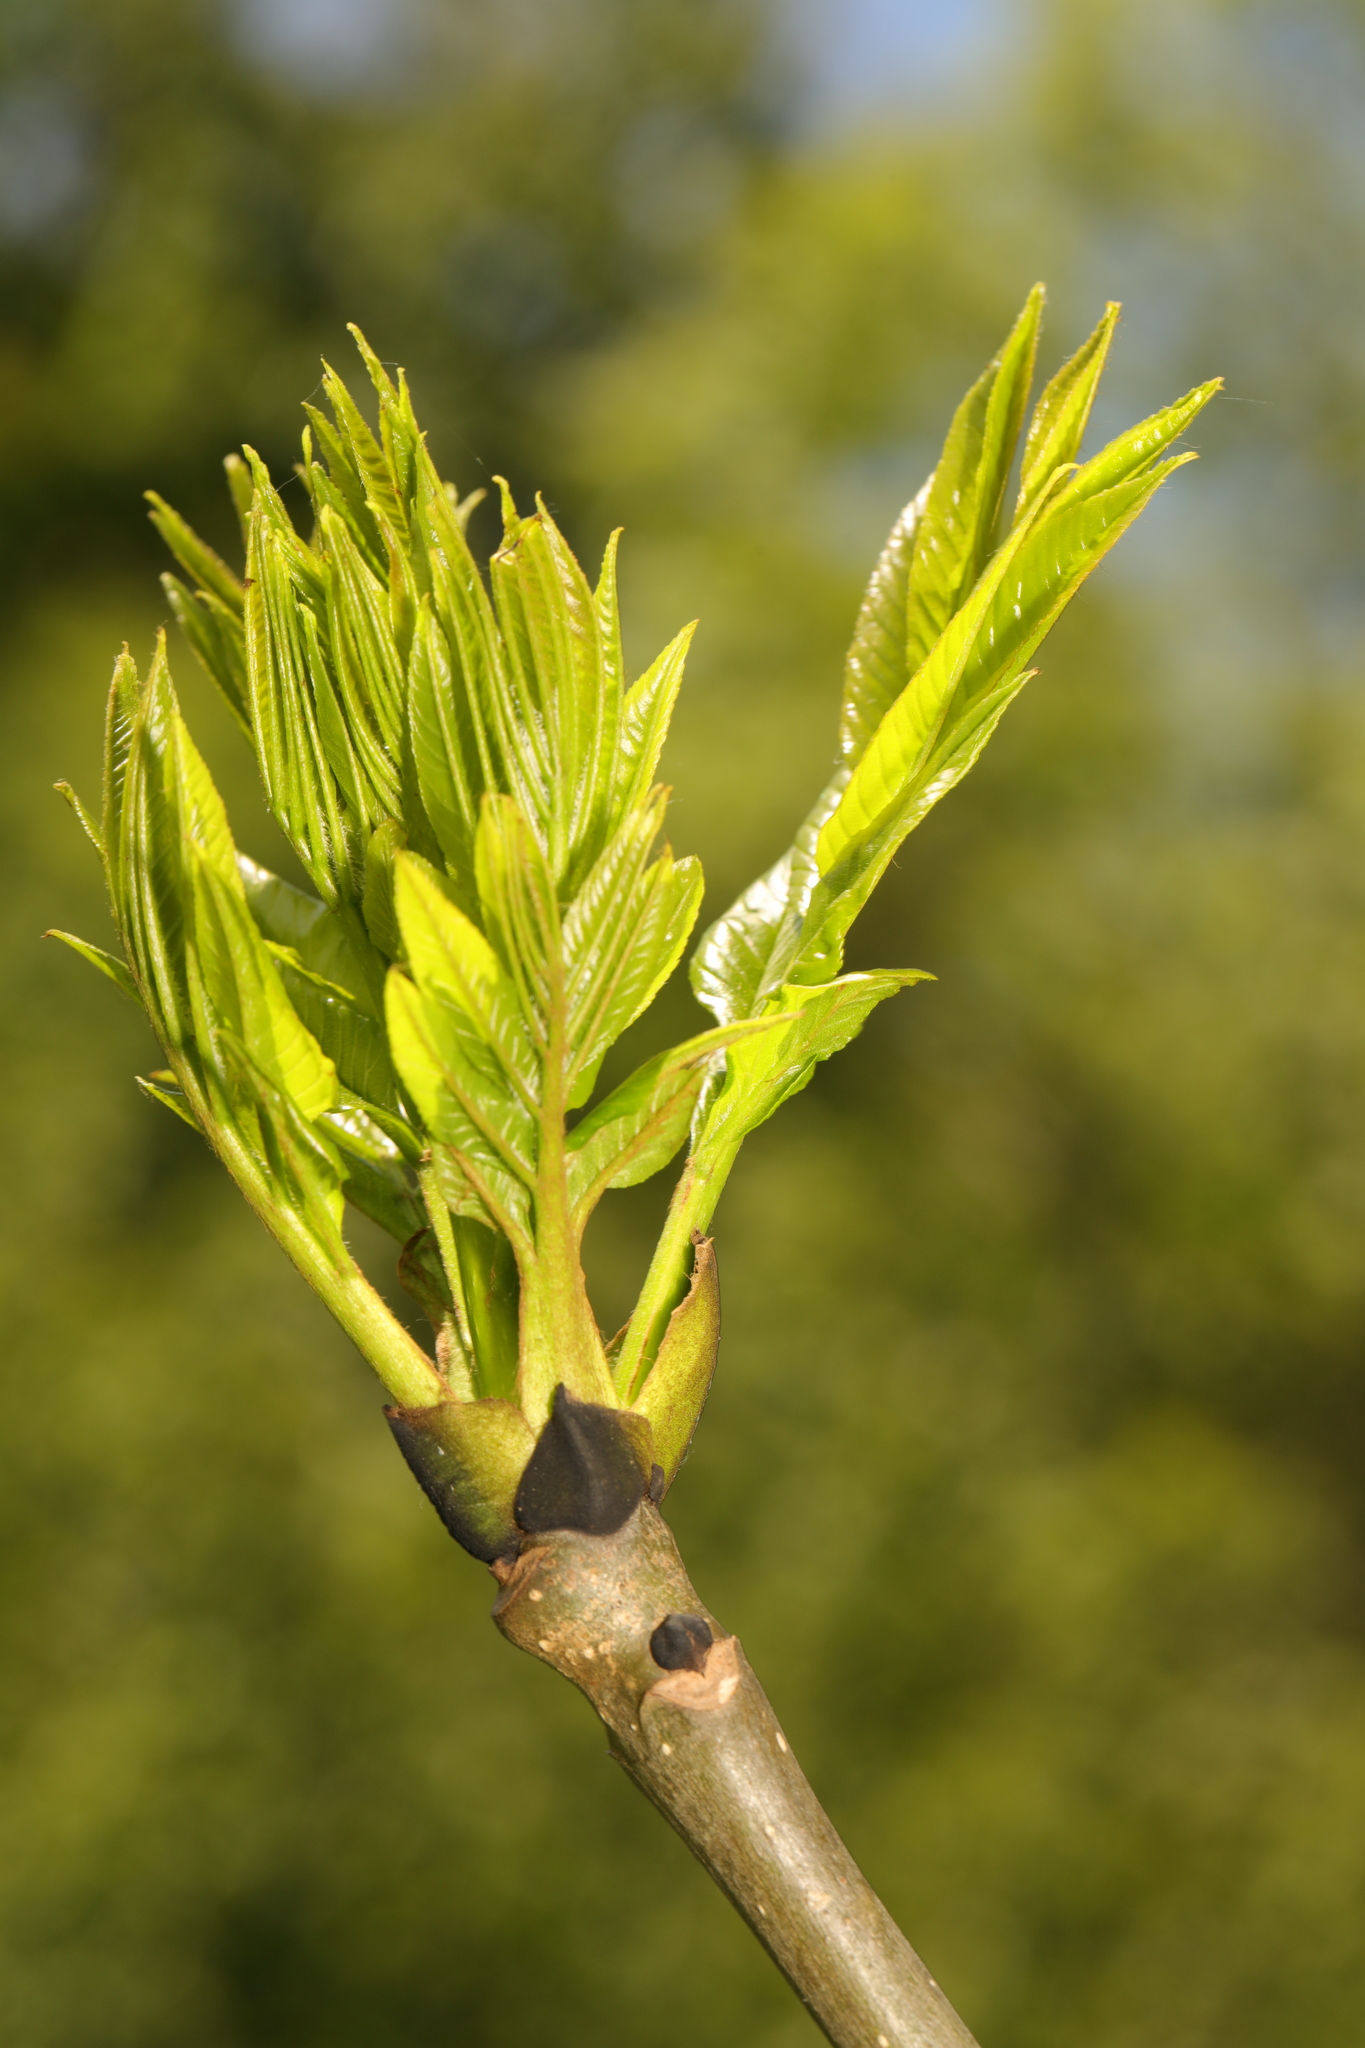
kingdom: Plantae
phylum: Tracheophyta
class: Magnoliopsida
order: Lamiales
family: Oleaceae
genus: Fraxinus
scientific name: Fraxinus excelsior
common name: European ash
